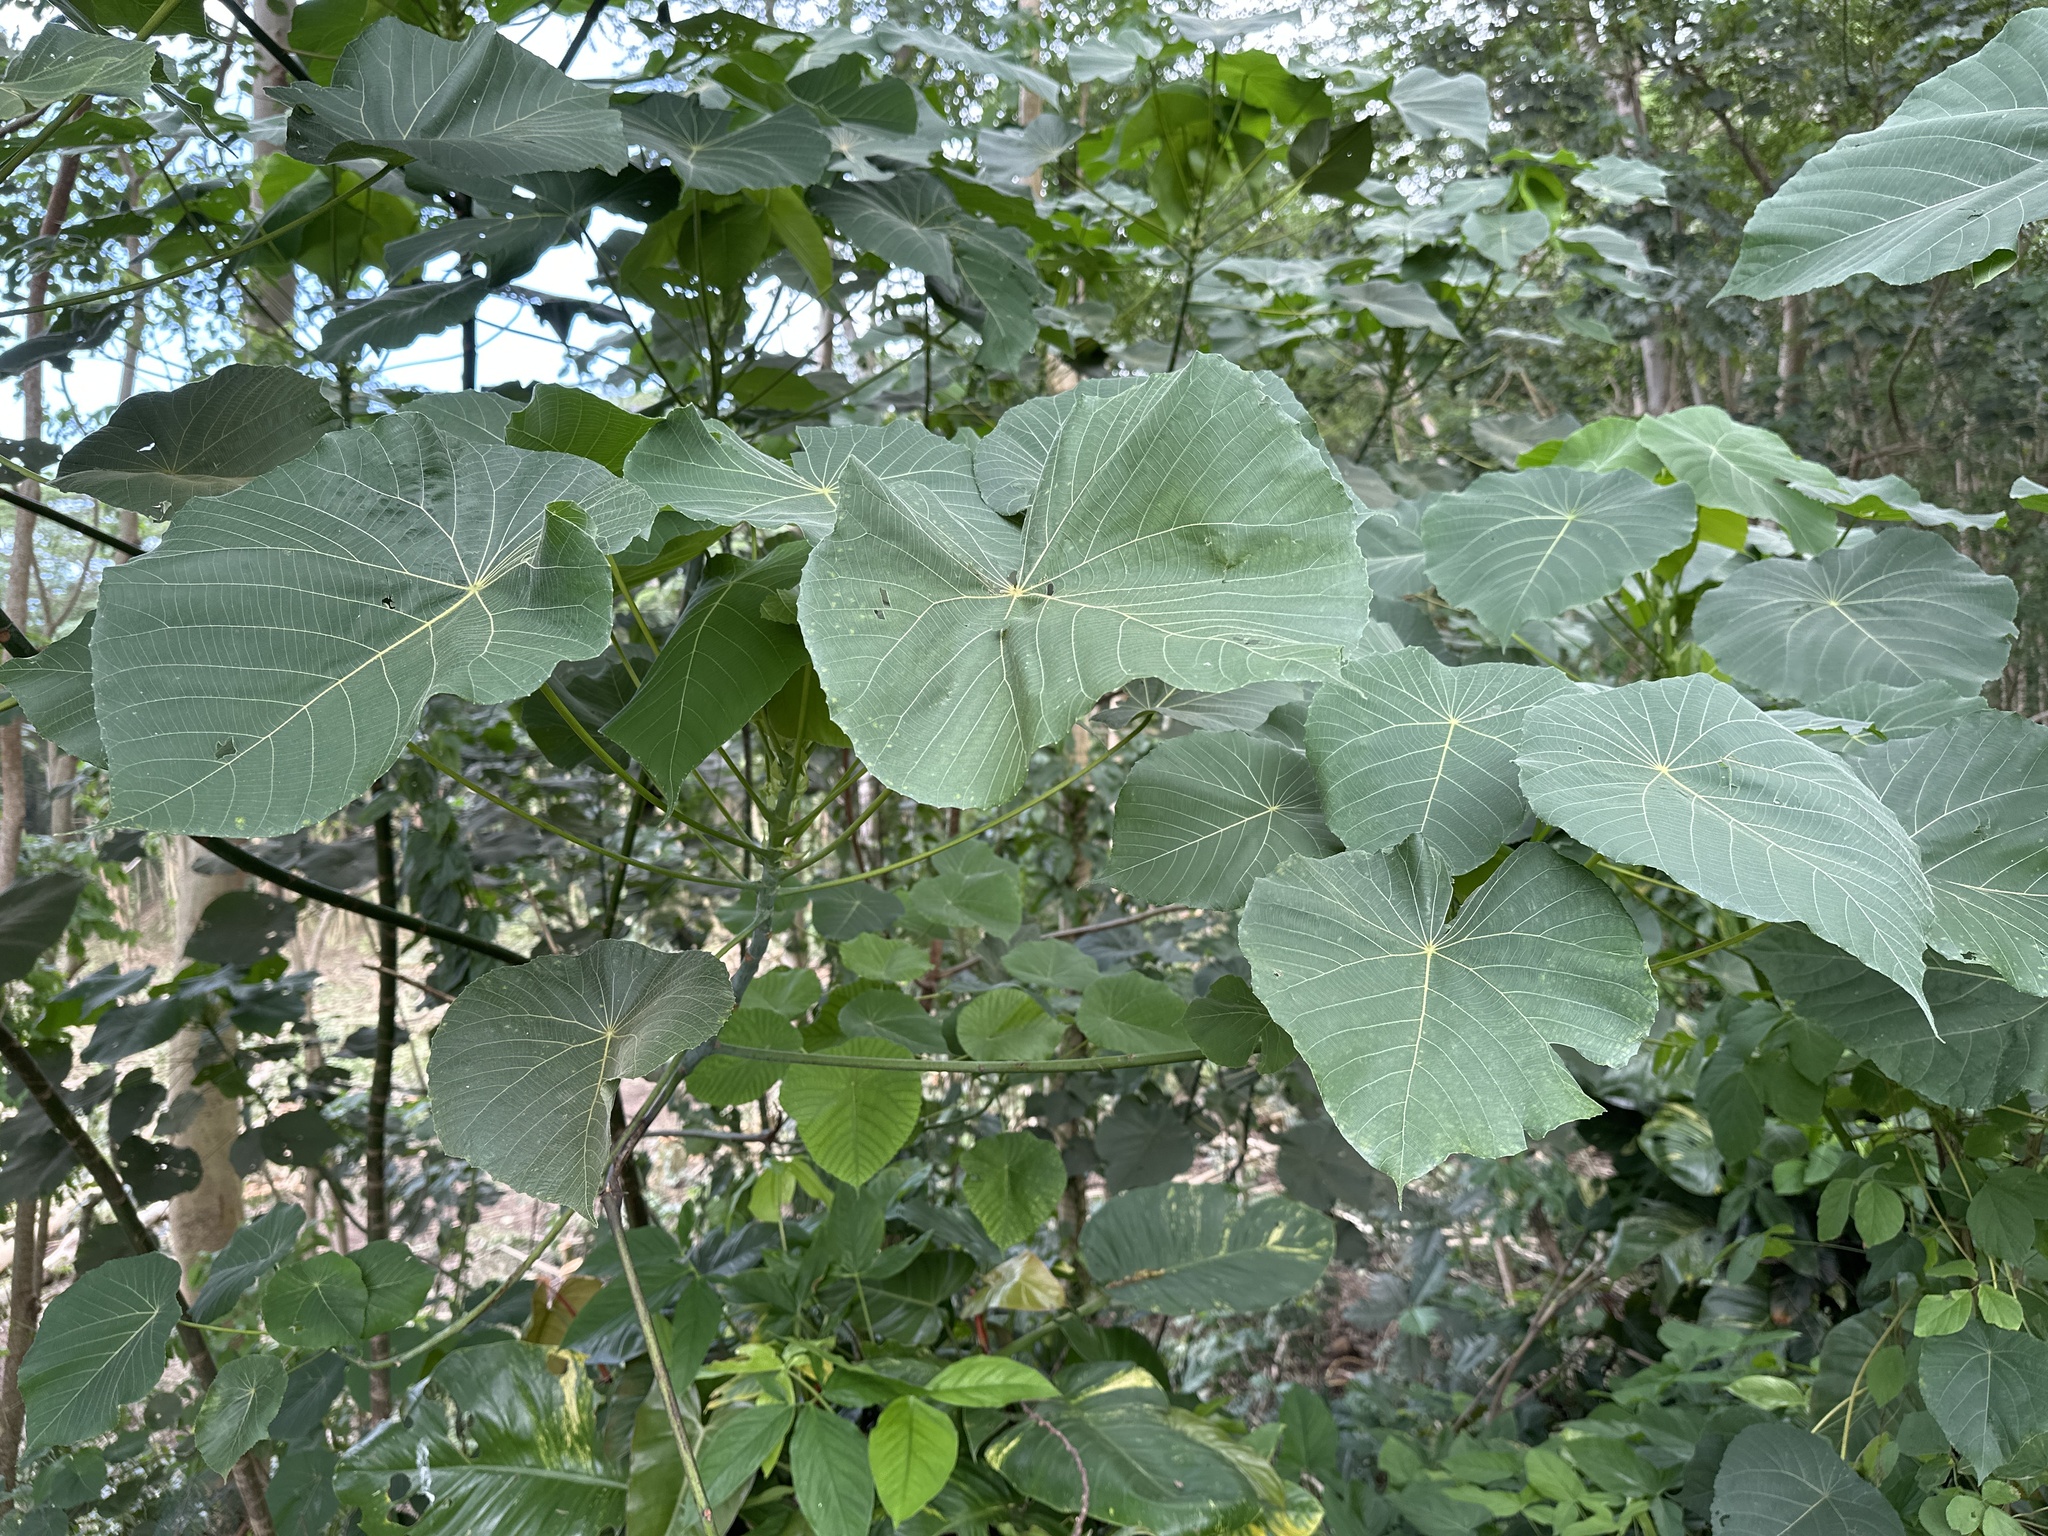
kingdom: Plantae
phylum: Tracheophyta
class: Magnoliopsida
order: Malpighiales
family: Euphorbiaceae
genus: Macaranga
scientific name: Macaranga tanarius
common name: Parasol leaf tree
